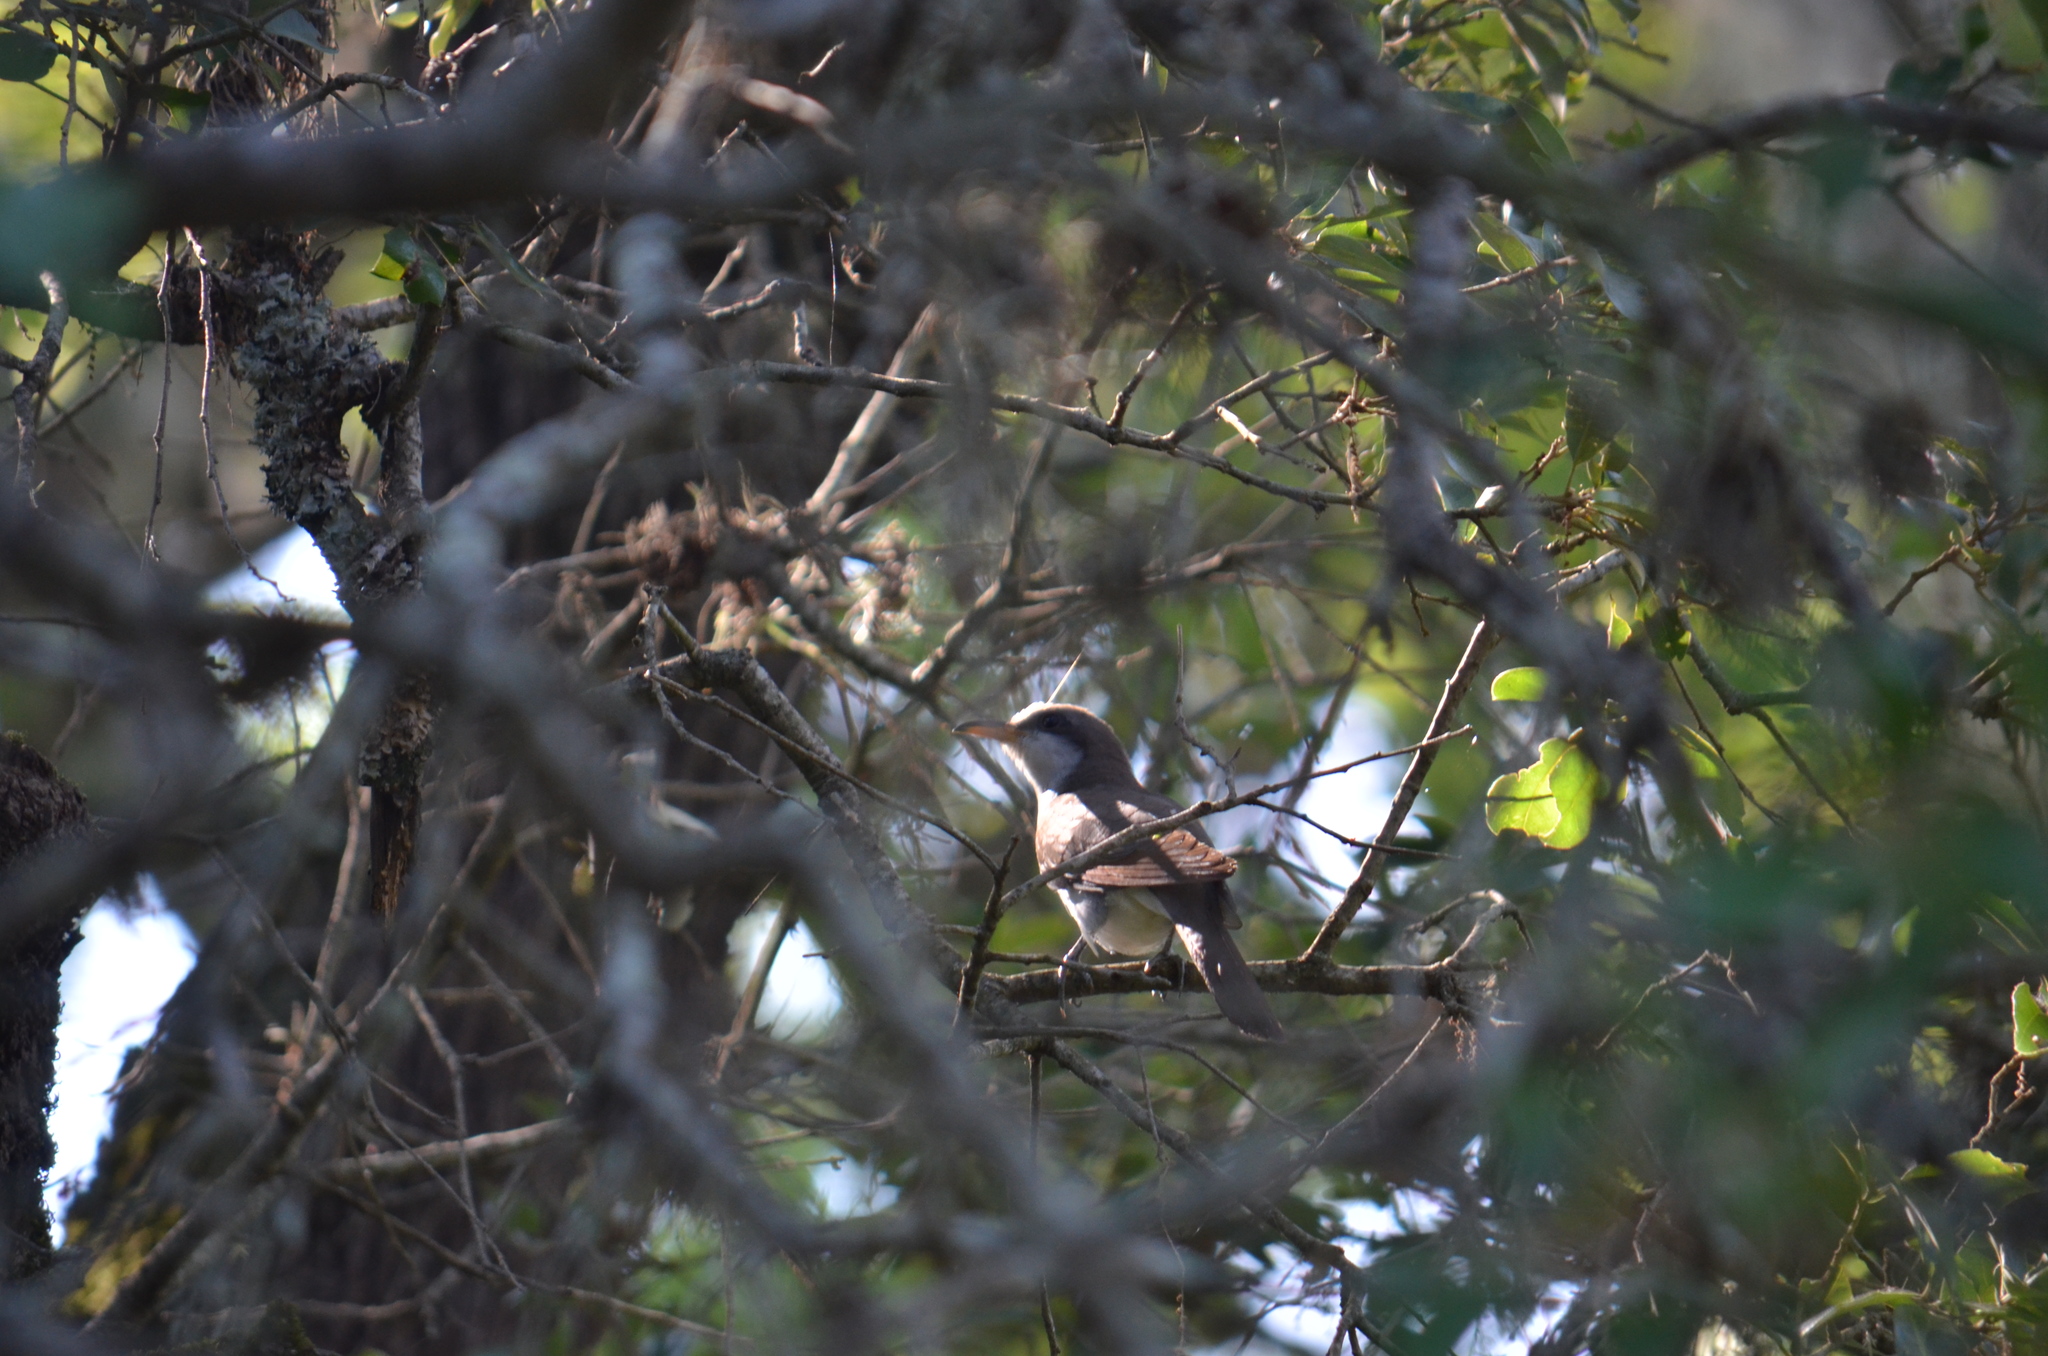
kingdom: Animalia
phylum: Chordata
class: Aves
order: Cuculiformes
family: Cuculidae
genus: Coccyzus
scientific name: Coccyzus americanus
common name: Yellow-billed cuckoo
